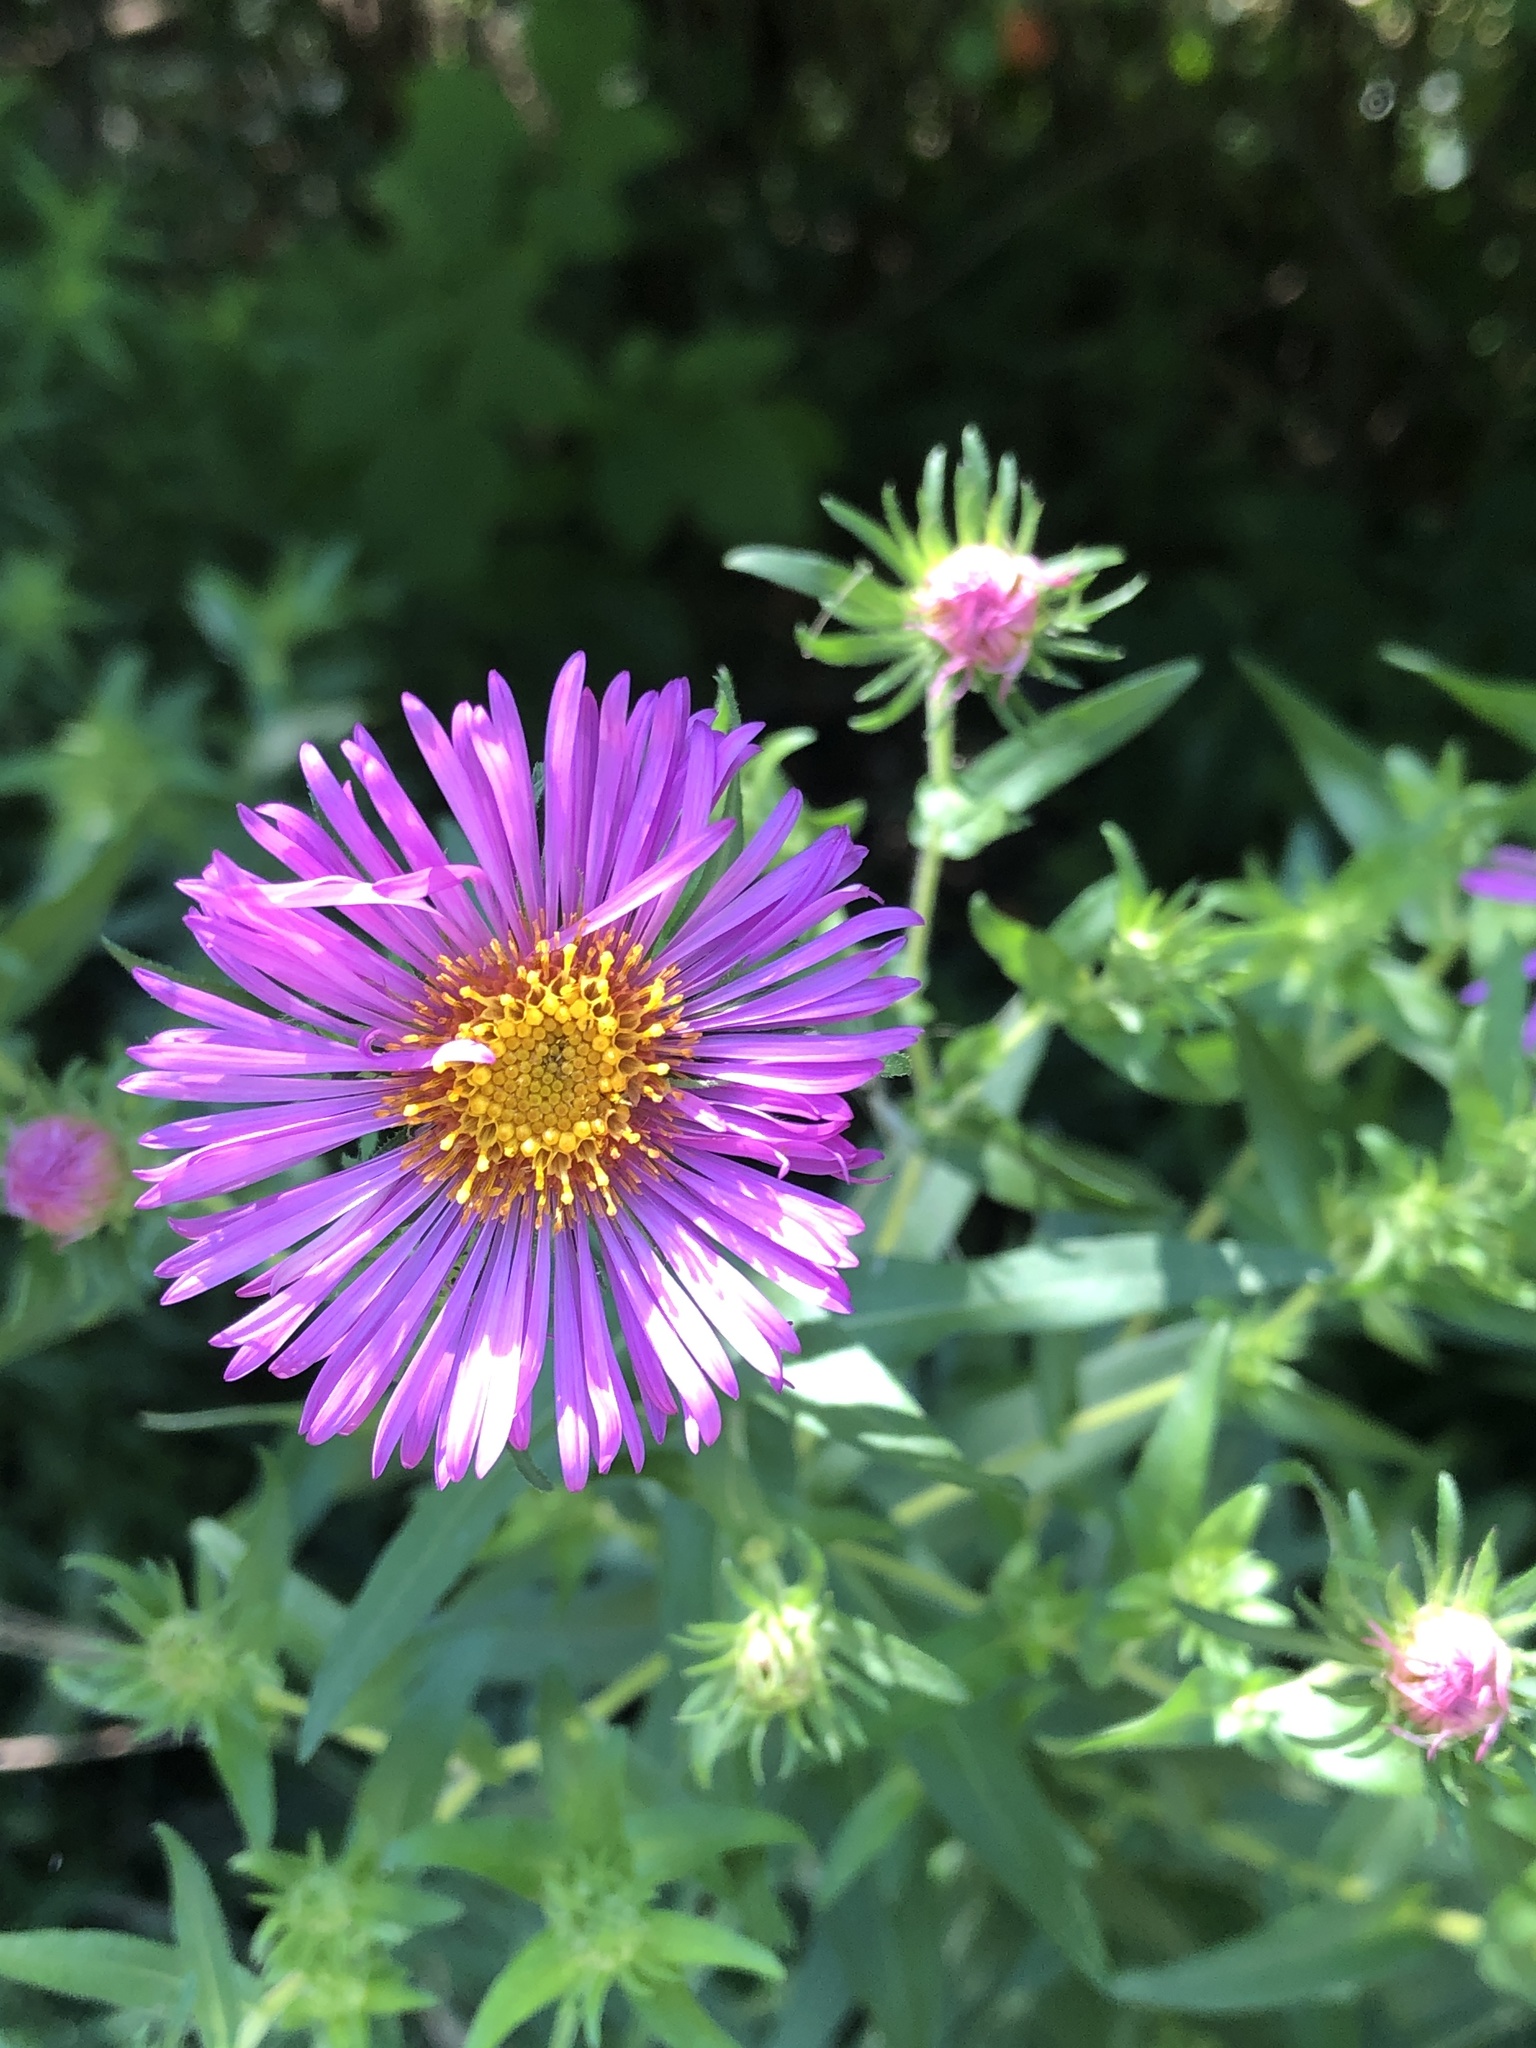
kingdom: Plantae
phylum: Tracheophyta
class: Magnoliopsida
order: Asterales
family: Asteraceae
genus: Symphyotrichum
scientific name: Symphyotrichum novae-angliae
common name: Michaelmas daisy
